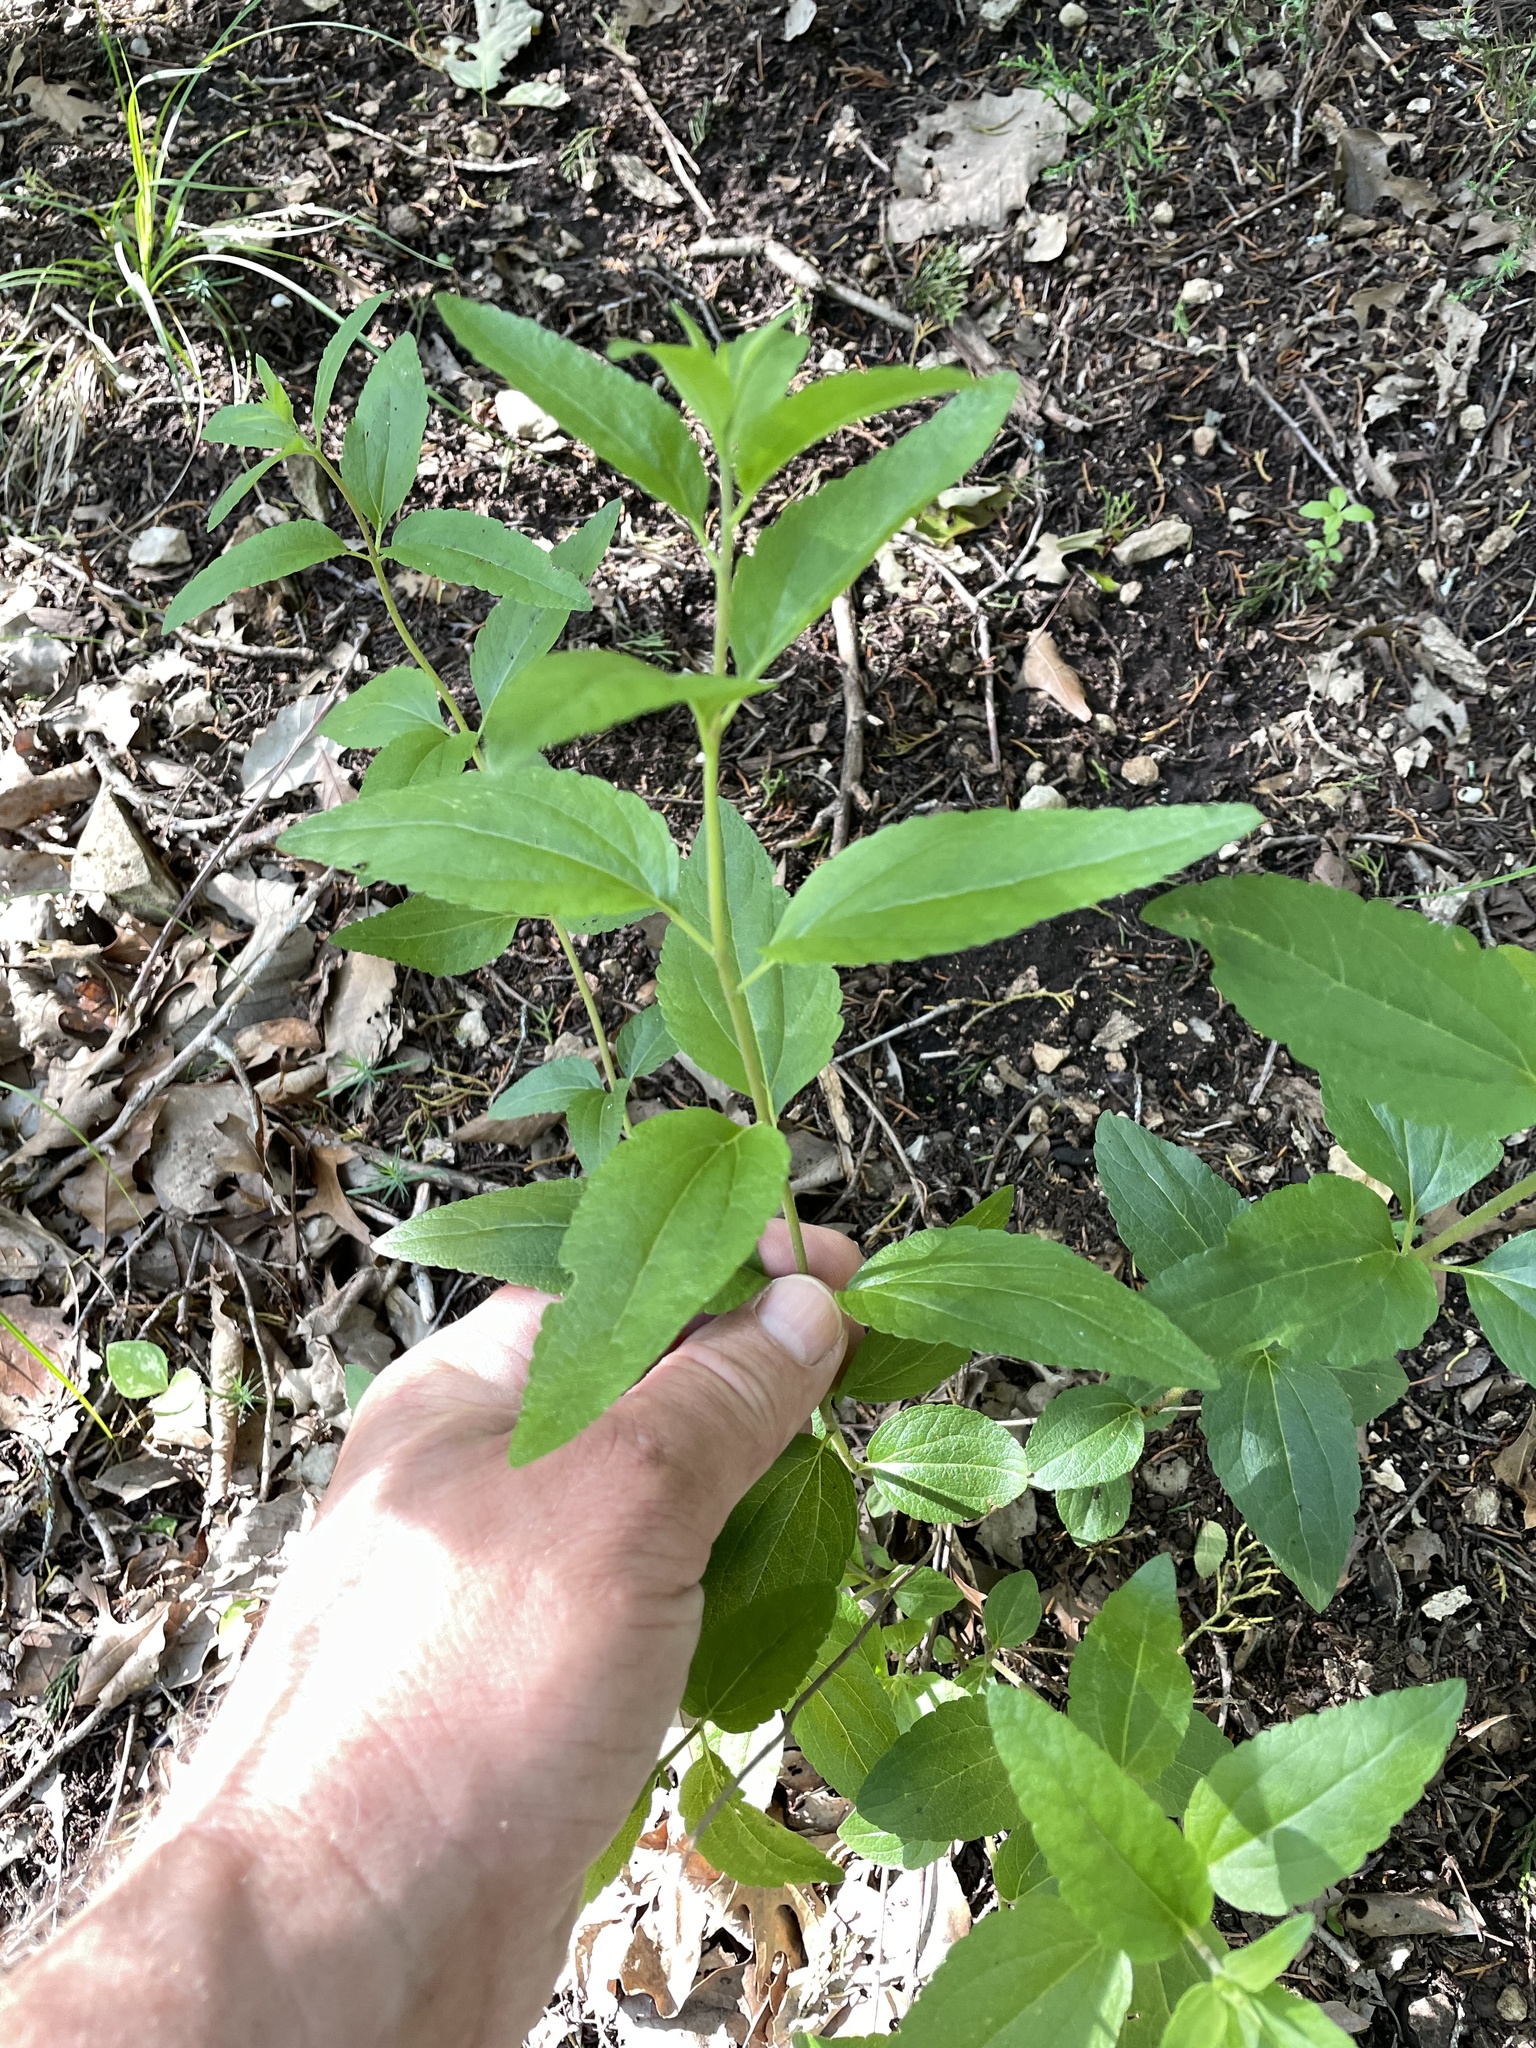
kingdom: Plantae
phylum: Tracheophyta
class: Magnoliopsida
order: Asterales
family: Asteraceae
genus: Brickellia
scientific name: Brickellia cylindracea
